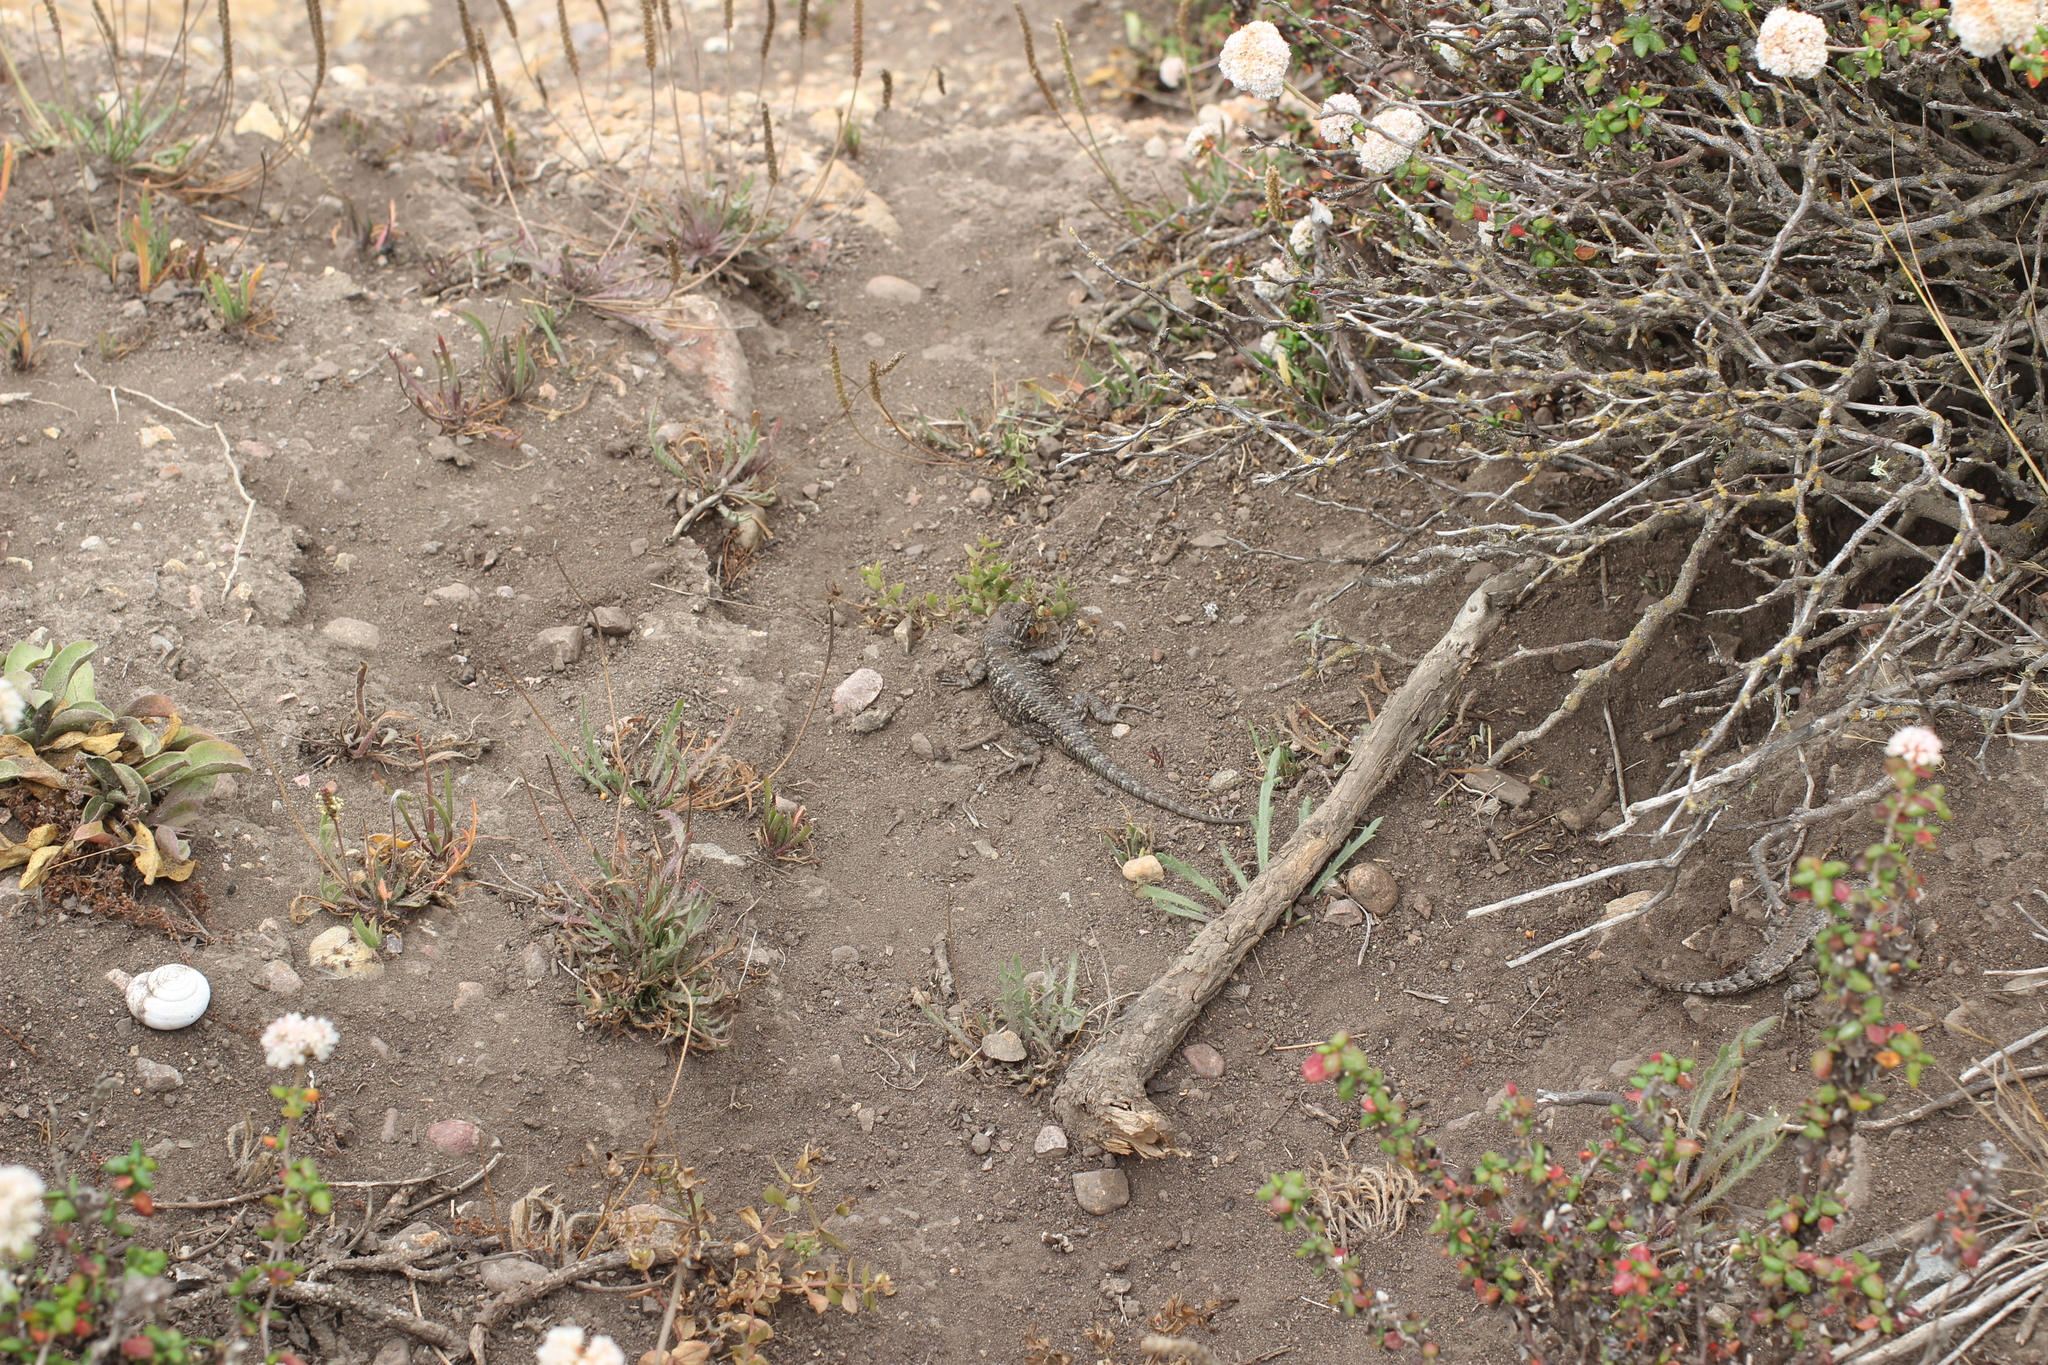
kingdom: Animalia
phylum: Chordata
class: Squamata
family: Phrynosomatidae
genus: Sceloporus
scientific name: Sceloporus occidentalis
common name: Western fence lizard
